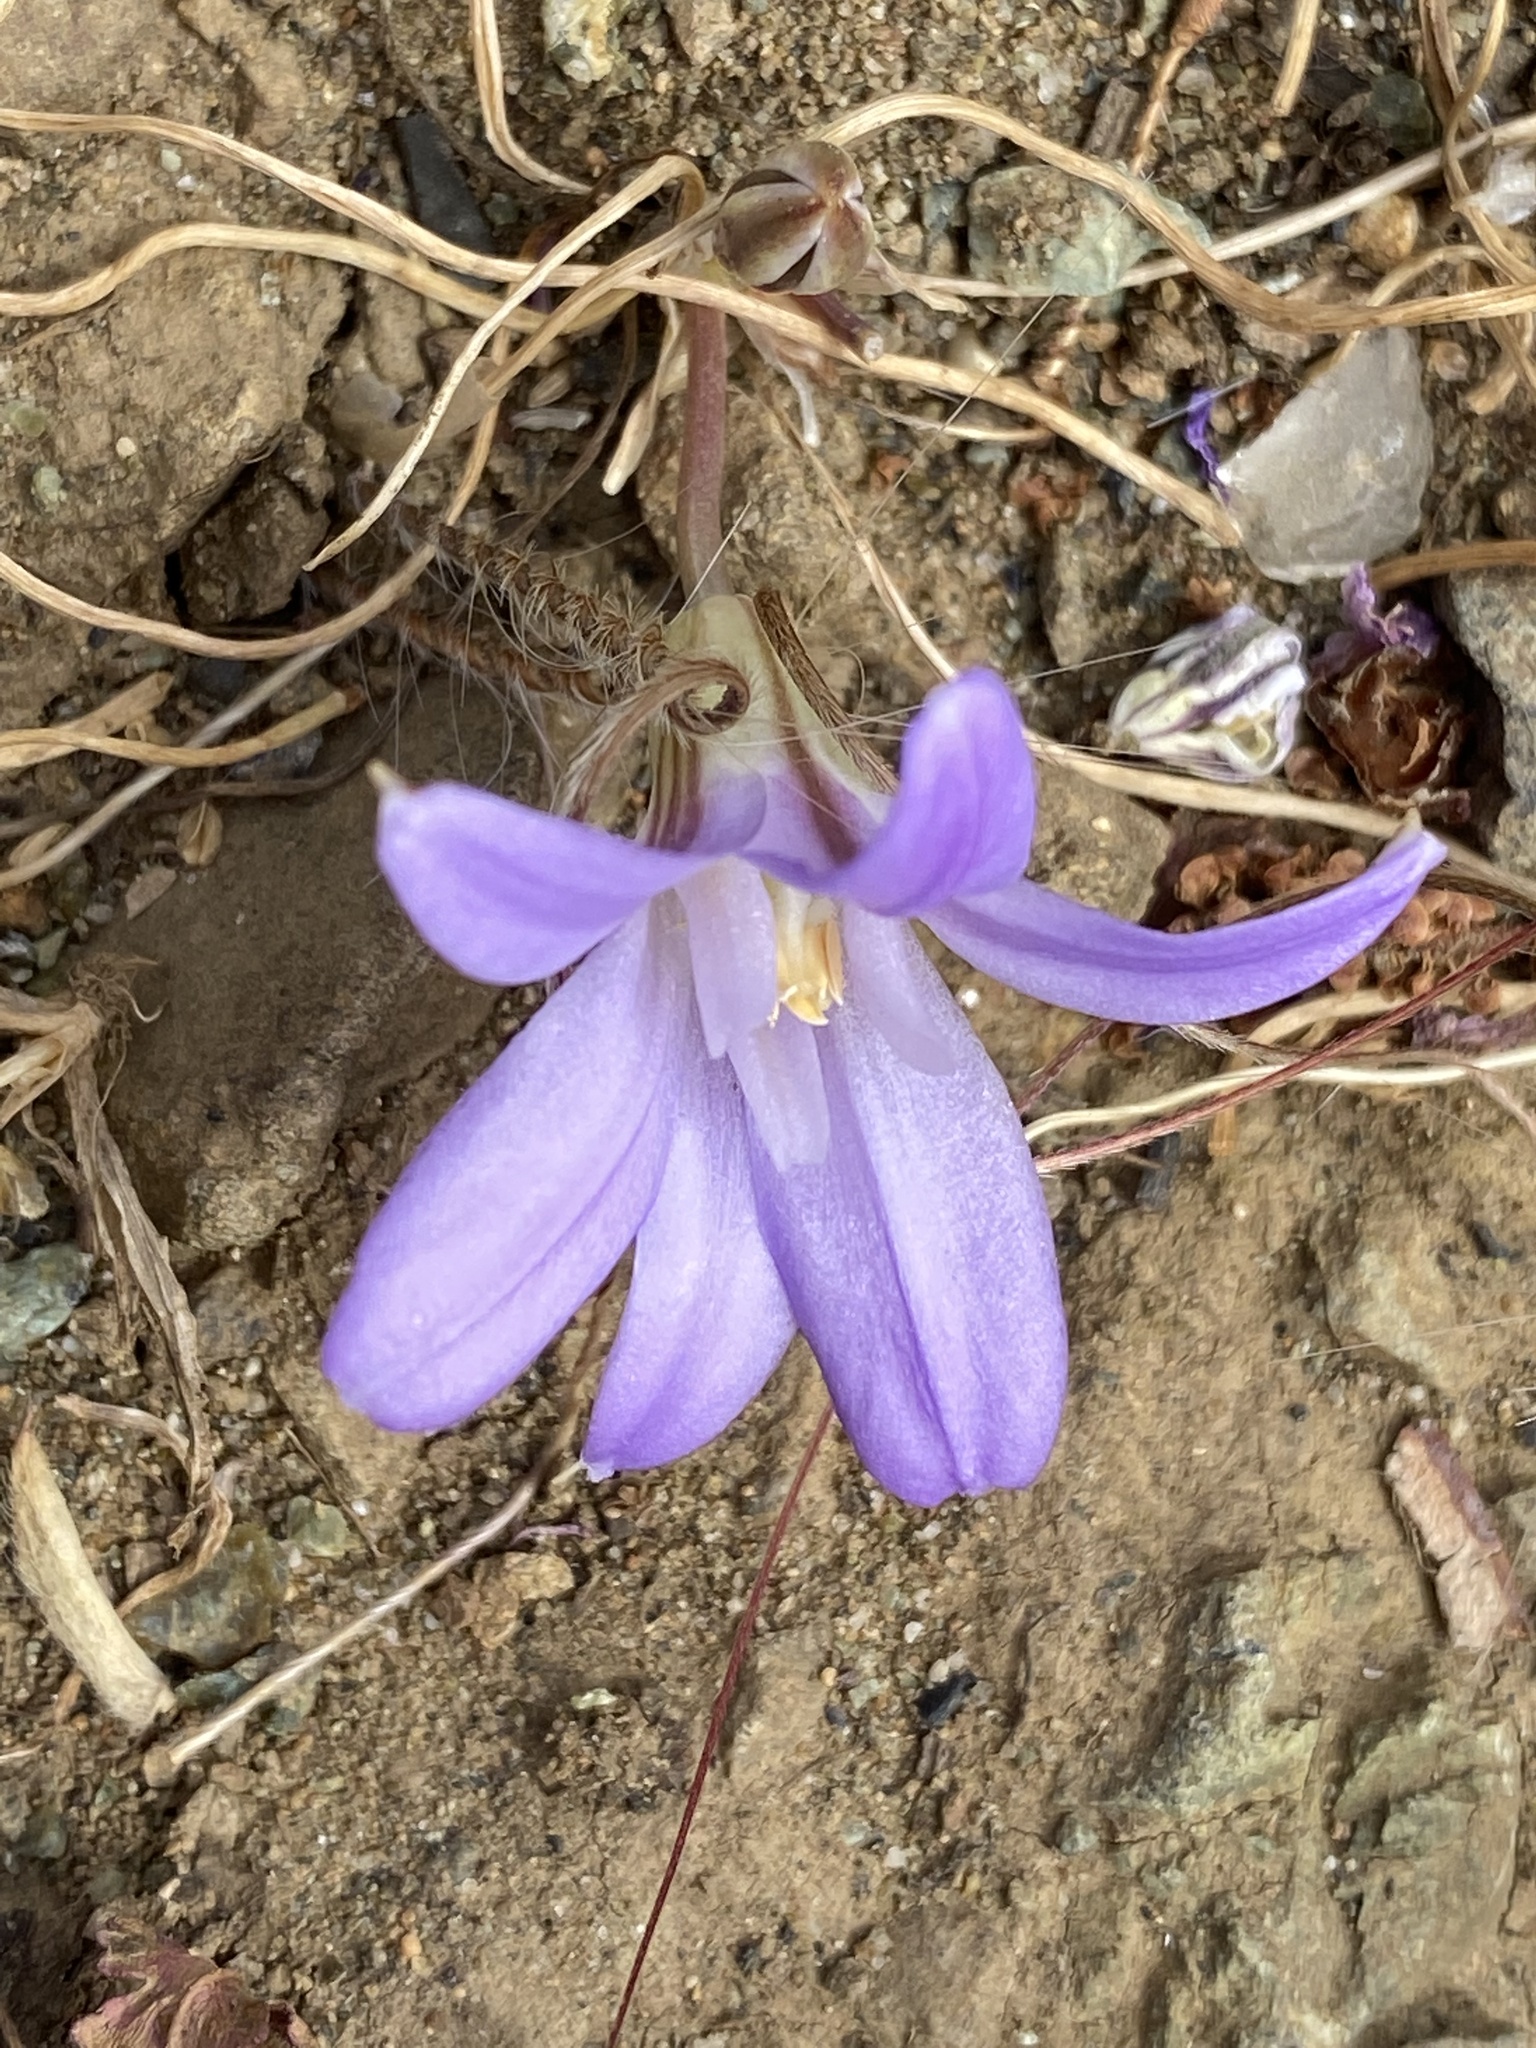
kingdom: Plantae
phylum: Tracheophyta
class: Liliopsida
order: Asparagales
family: Asparagaceae
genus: Brodiaea
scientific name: Brodiaea terrestris
